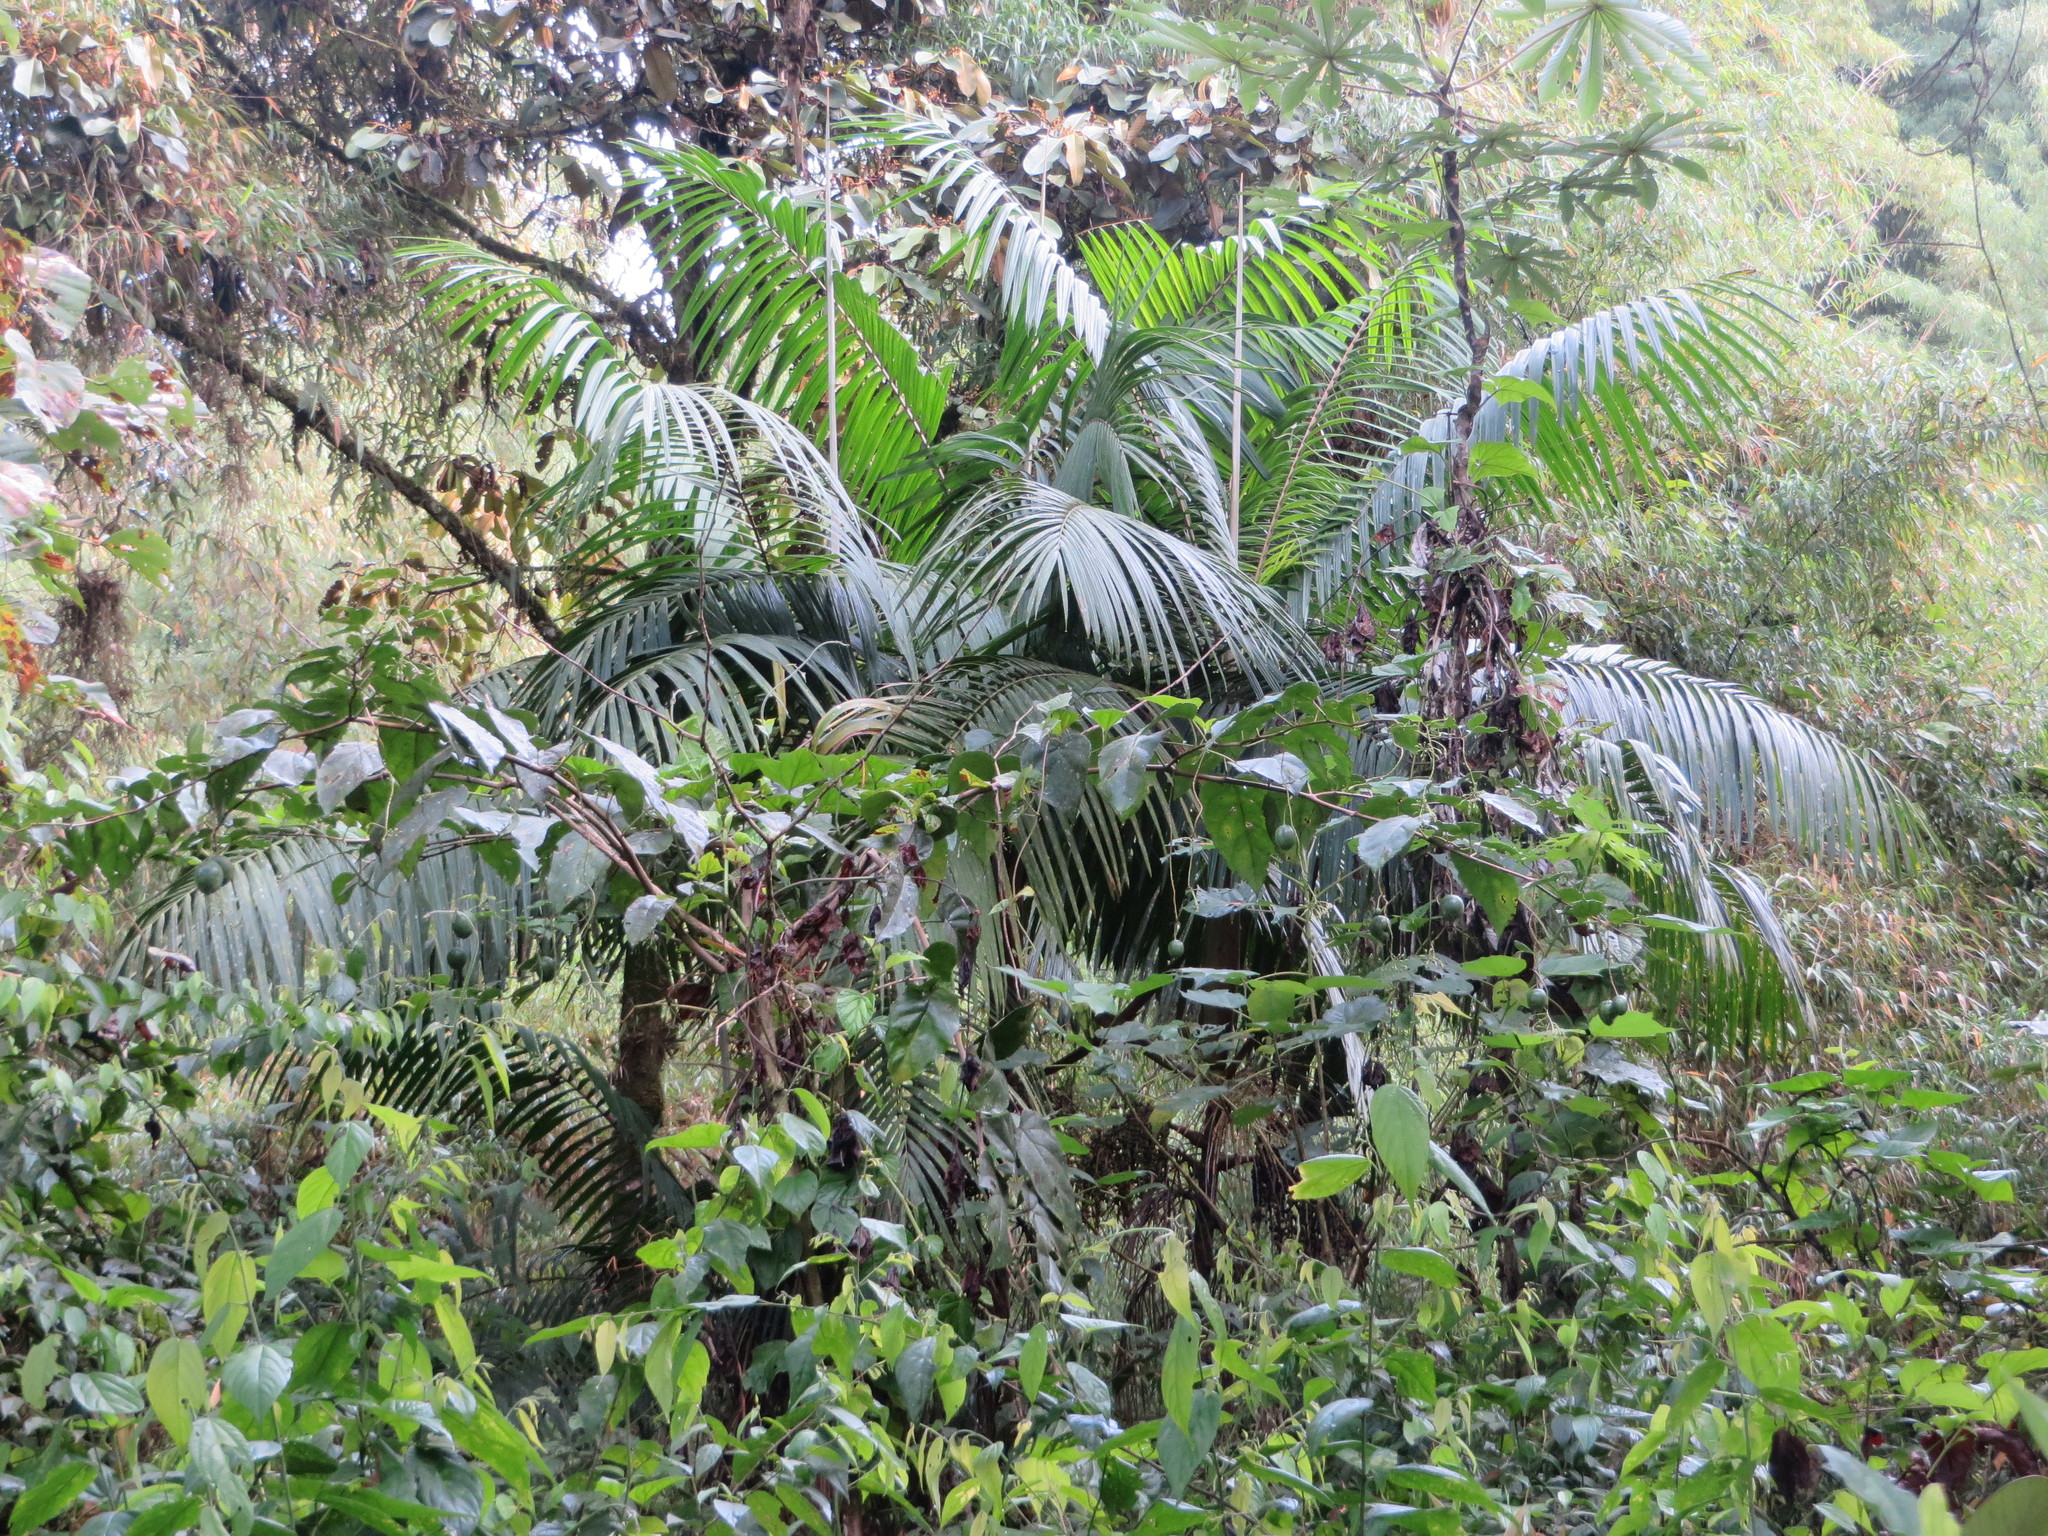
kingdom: Plantae
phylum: Tracheophyta
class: Liliopsida
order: Arecales
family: Arecaceae
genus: Prestoea
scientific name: Prestoea acuminata
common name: Sierran palm
